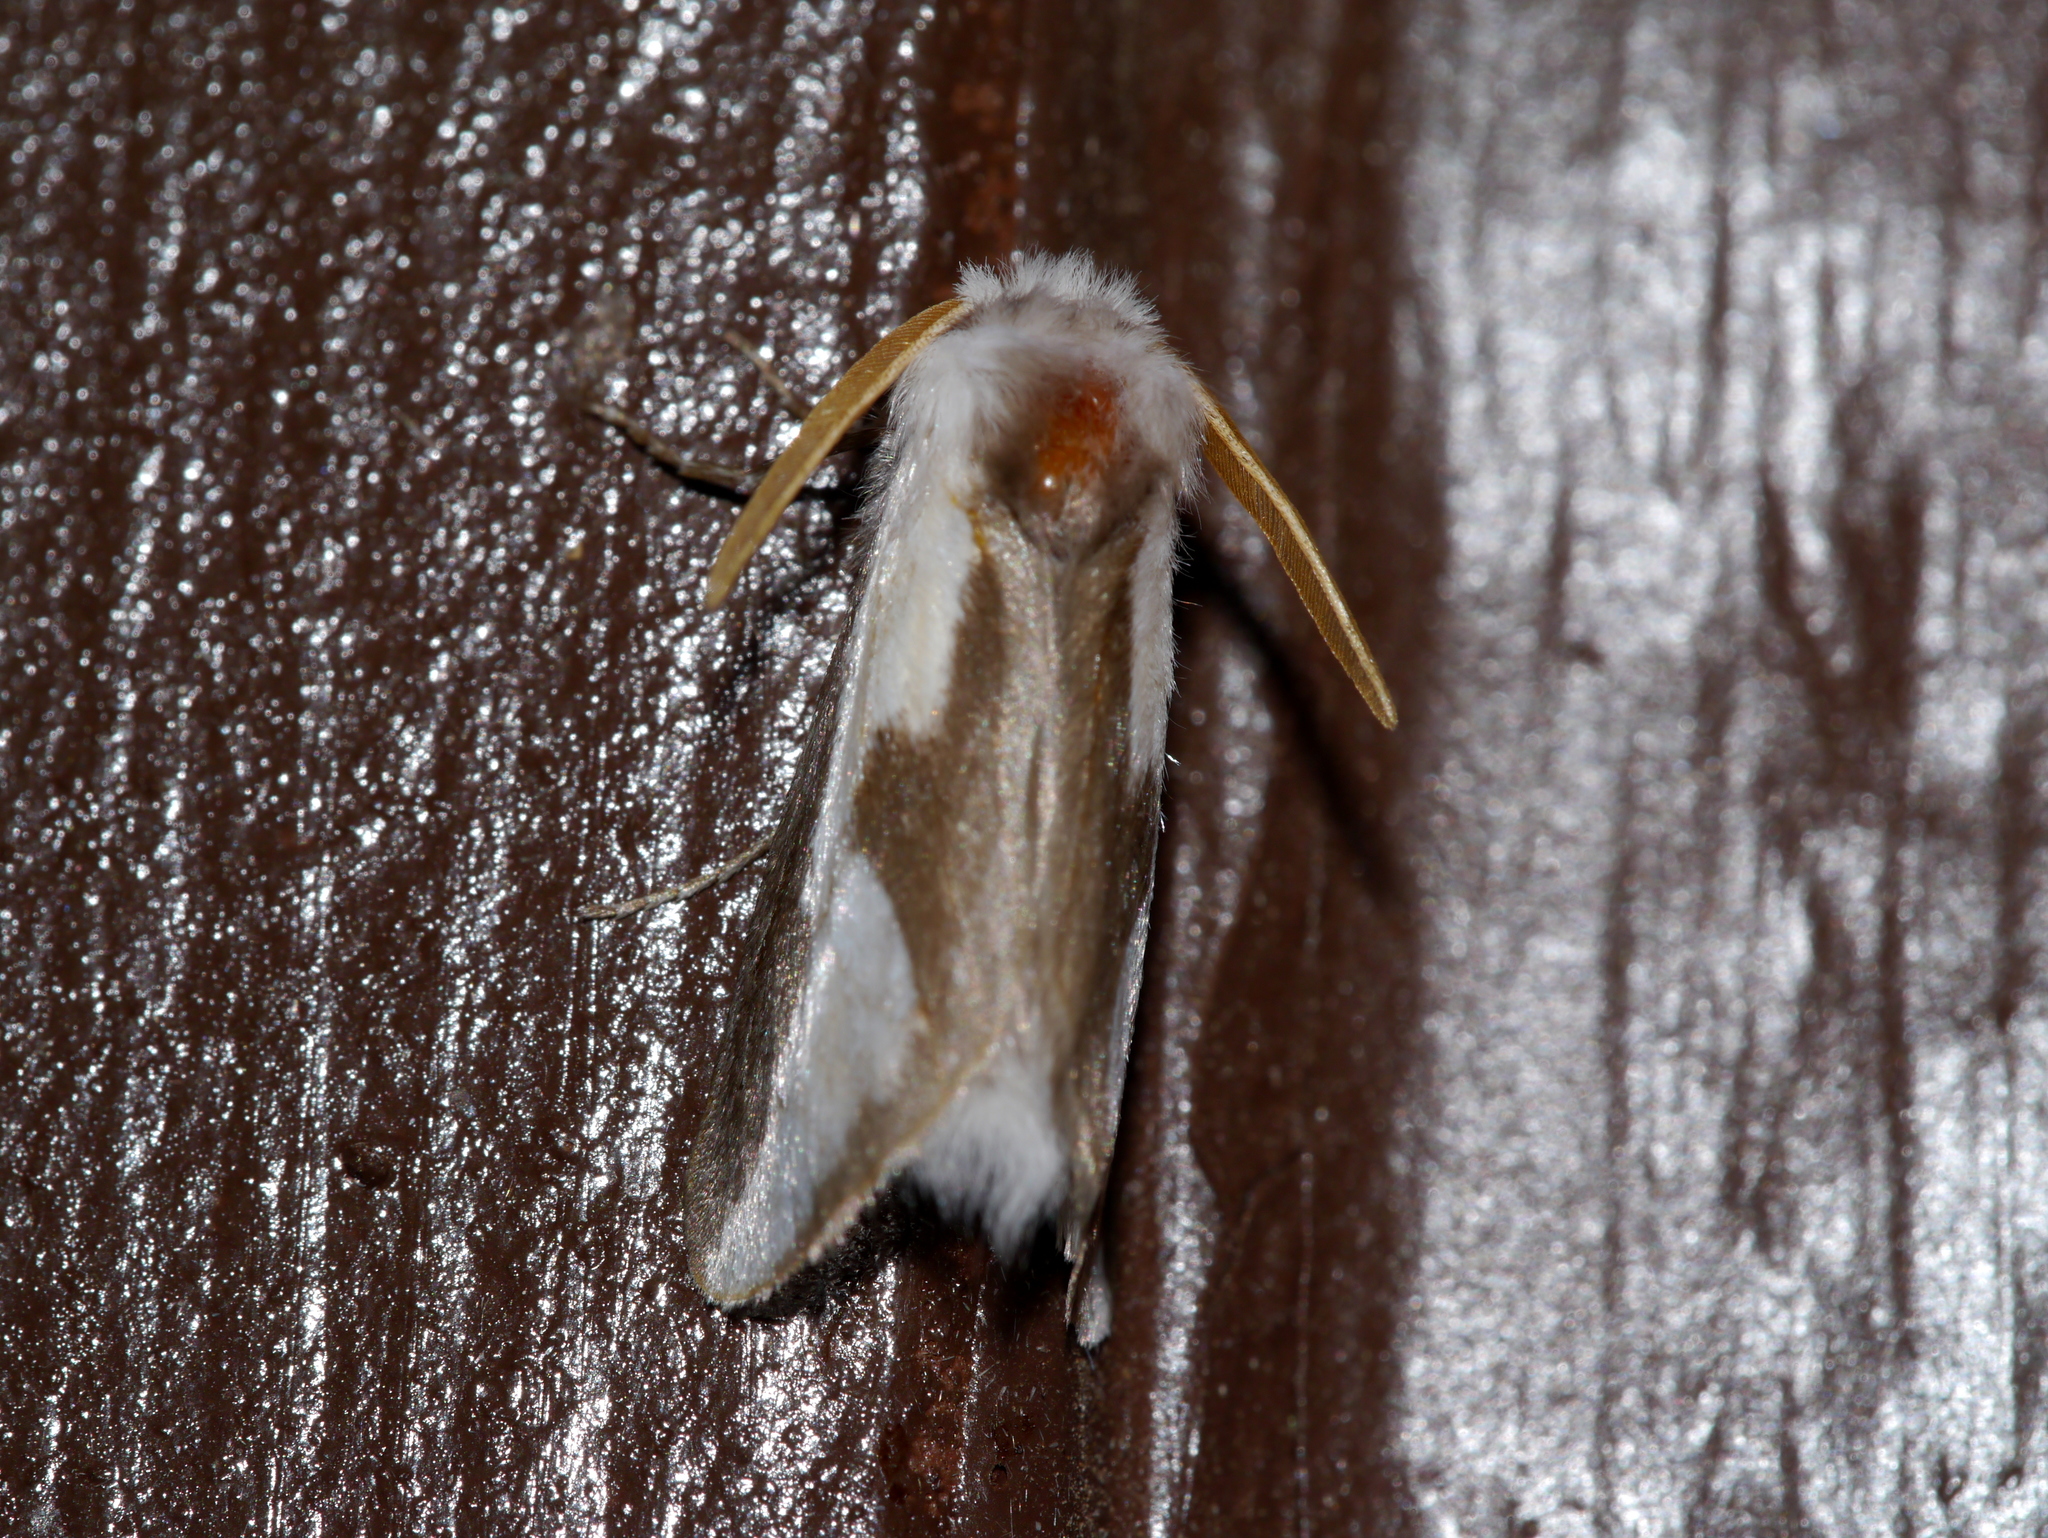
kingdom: Animalia
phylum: Arthropoda
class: Insecta
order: Lepidoptera
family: Megalopygidae
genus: Norape
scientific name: Norape tener
